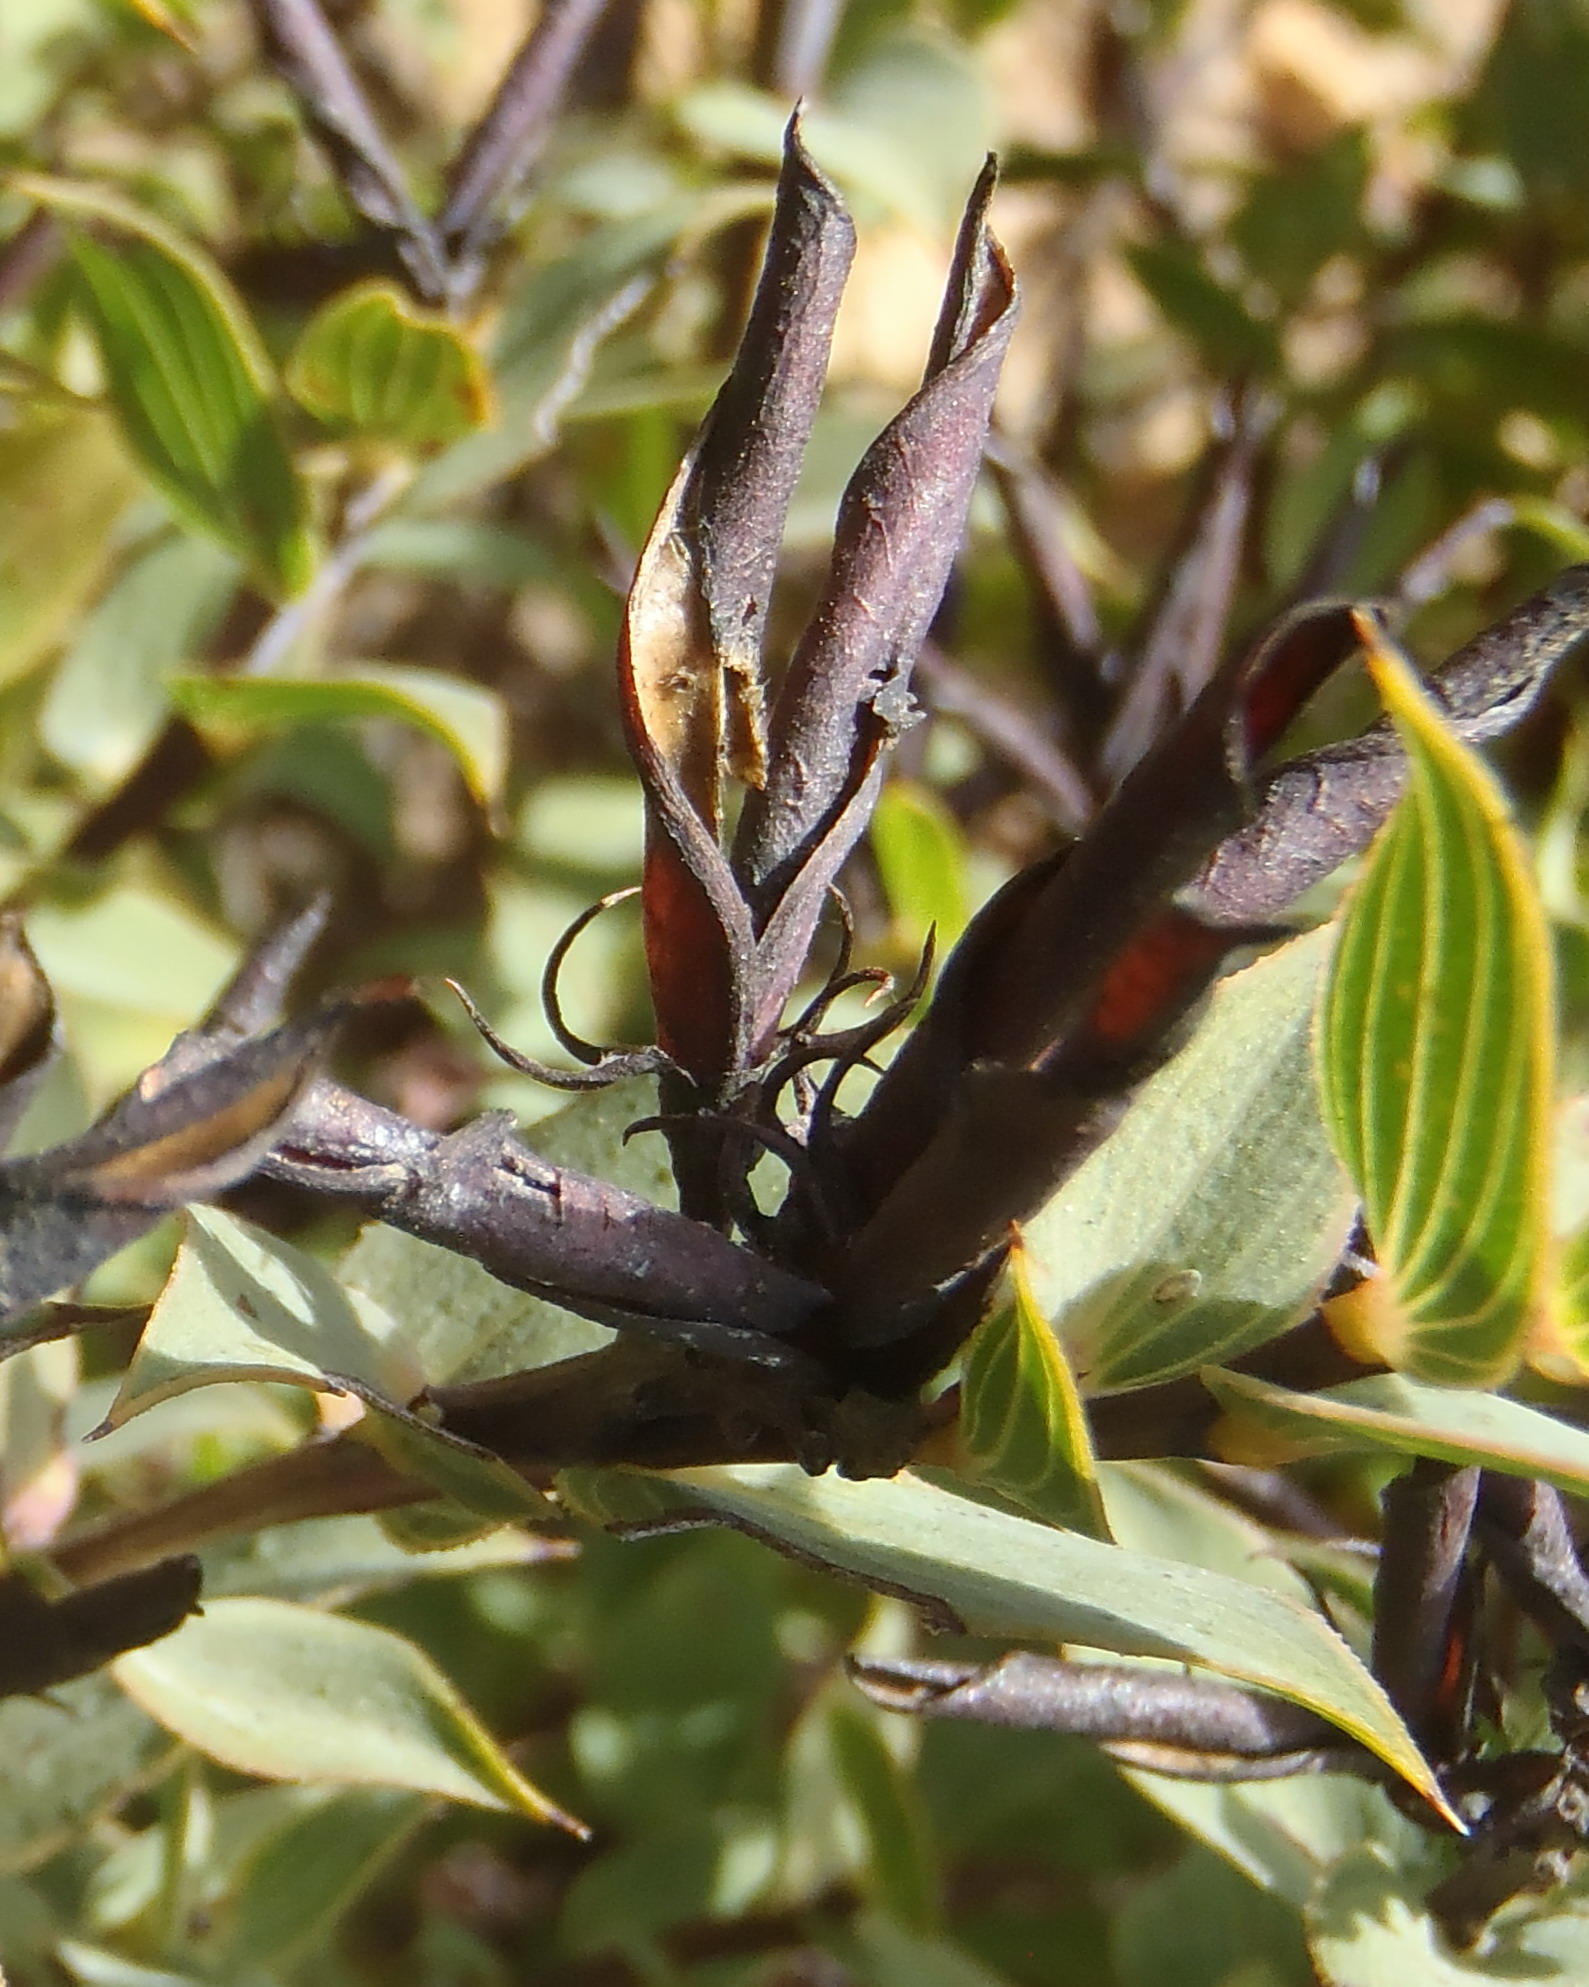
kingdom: Plantae
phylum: Tracheophyta
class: Magnoliopsida
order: Fabales
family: Fabaceae
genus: Aspalathus
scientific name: Aspalathus crenata
